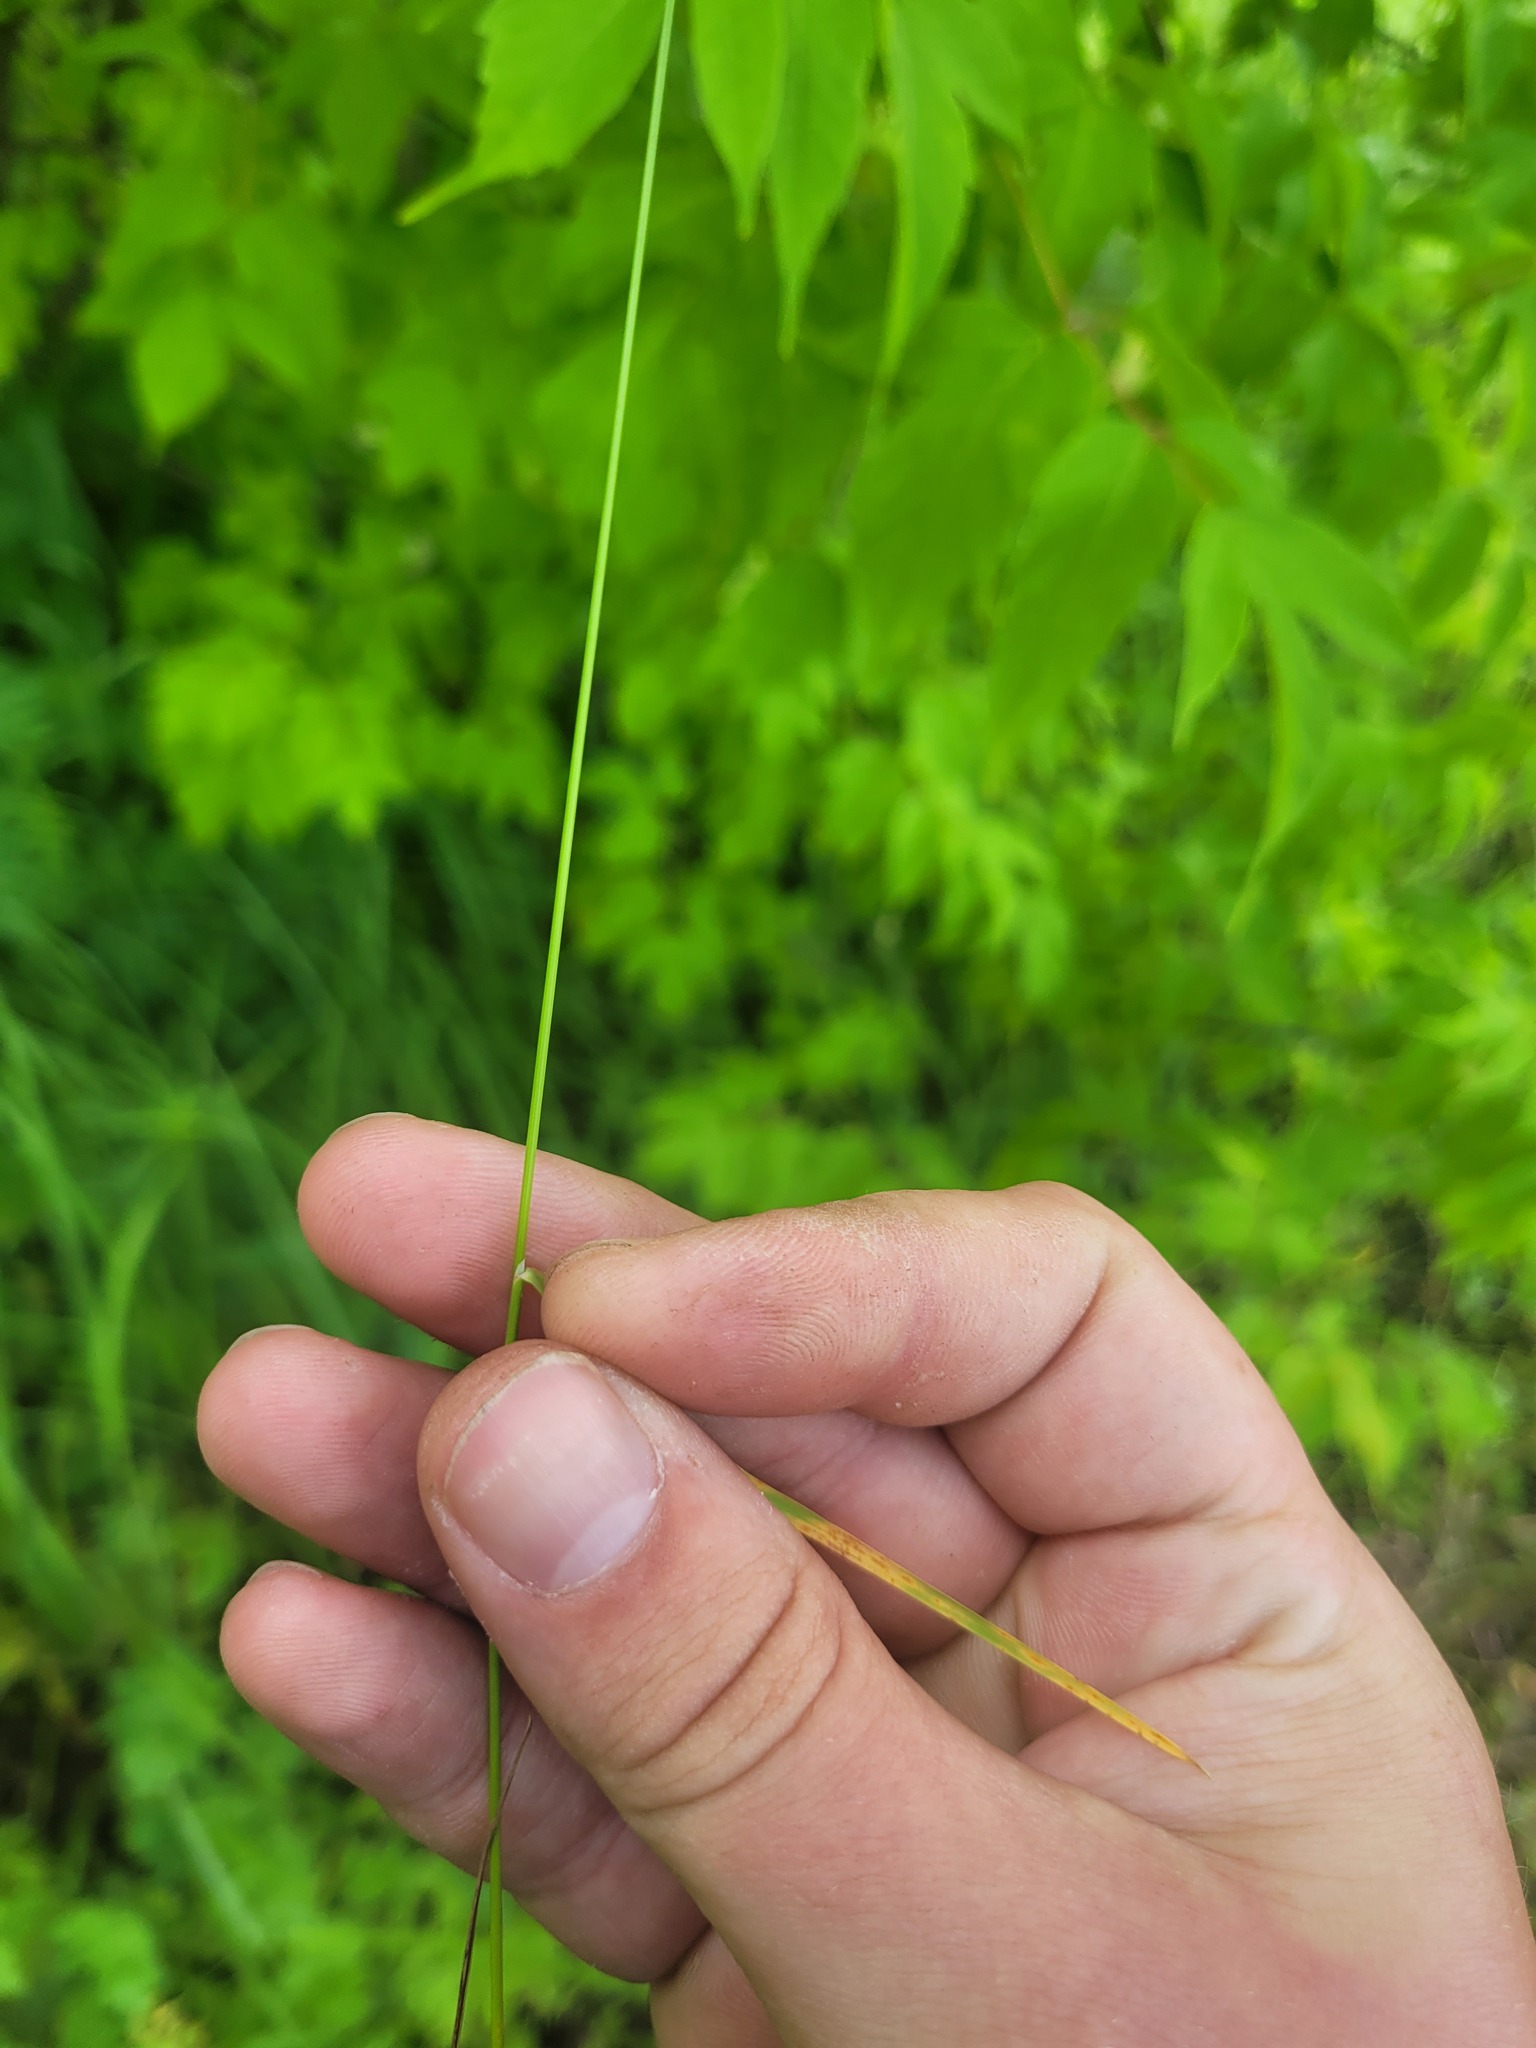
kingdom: Plantae
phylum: Tracheophyta
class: Liliopsida
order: Poales
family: Poaceae
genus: Poa
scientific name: Poa palustris
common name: Swamp meadow-grass
